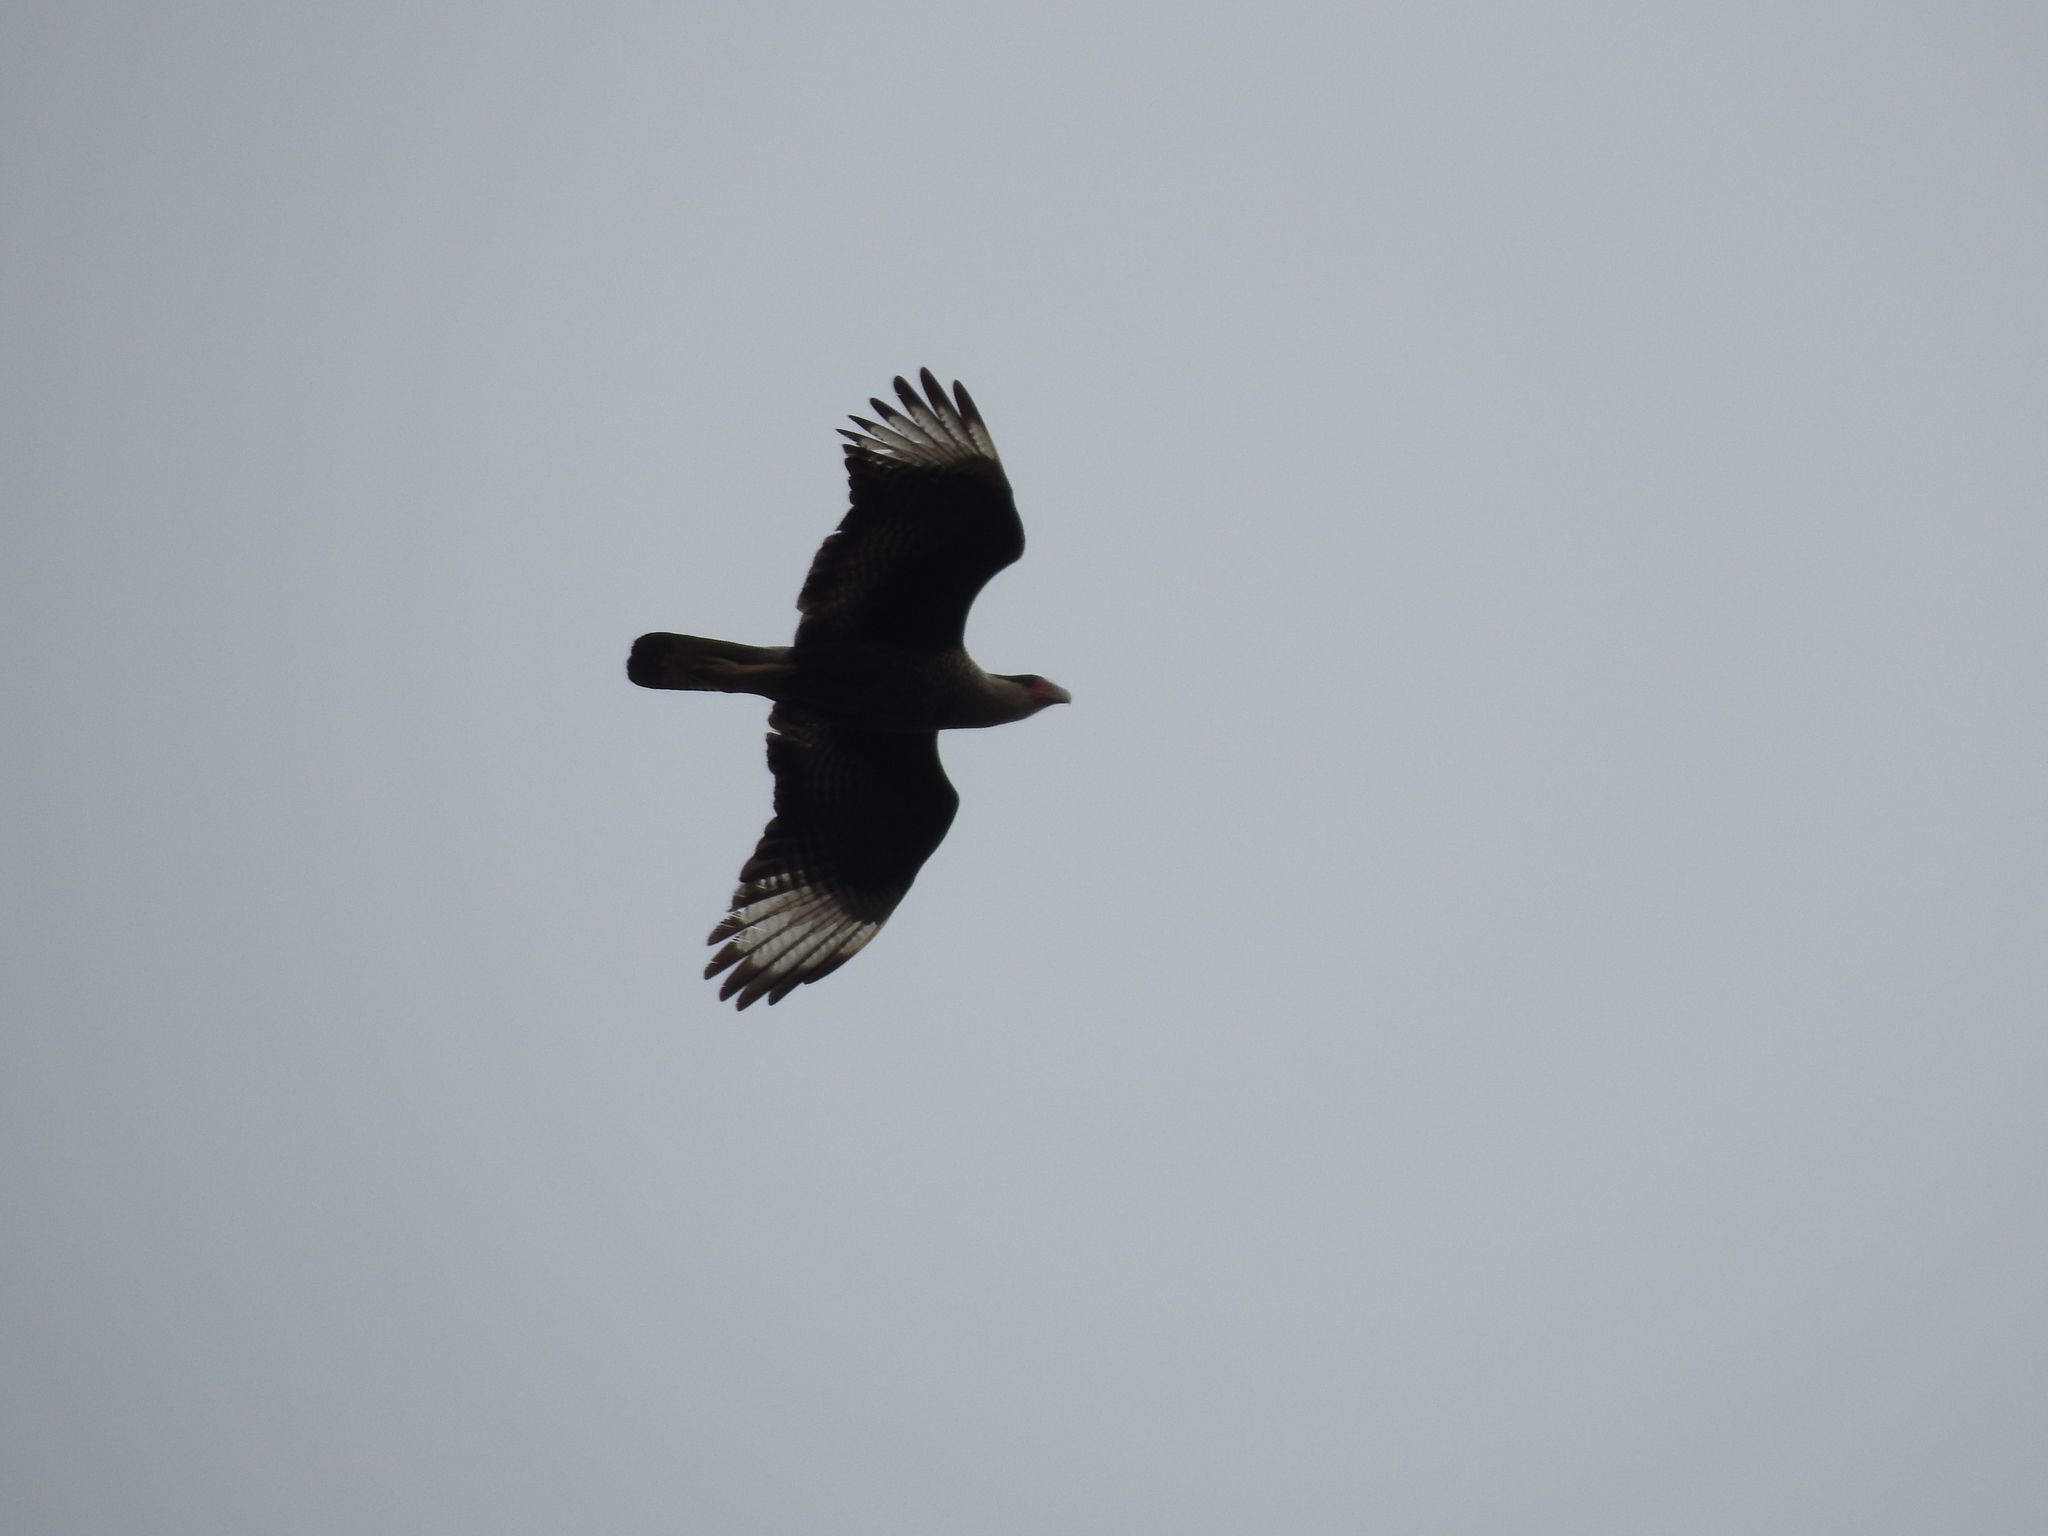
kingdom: Animalia
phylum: Chordata
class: Aves
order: Falconiformes
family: Falconidae
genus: Caracara
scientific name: Caracara plancus
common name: Southern caracara
